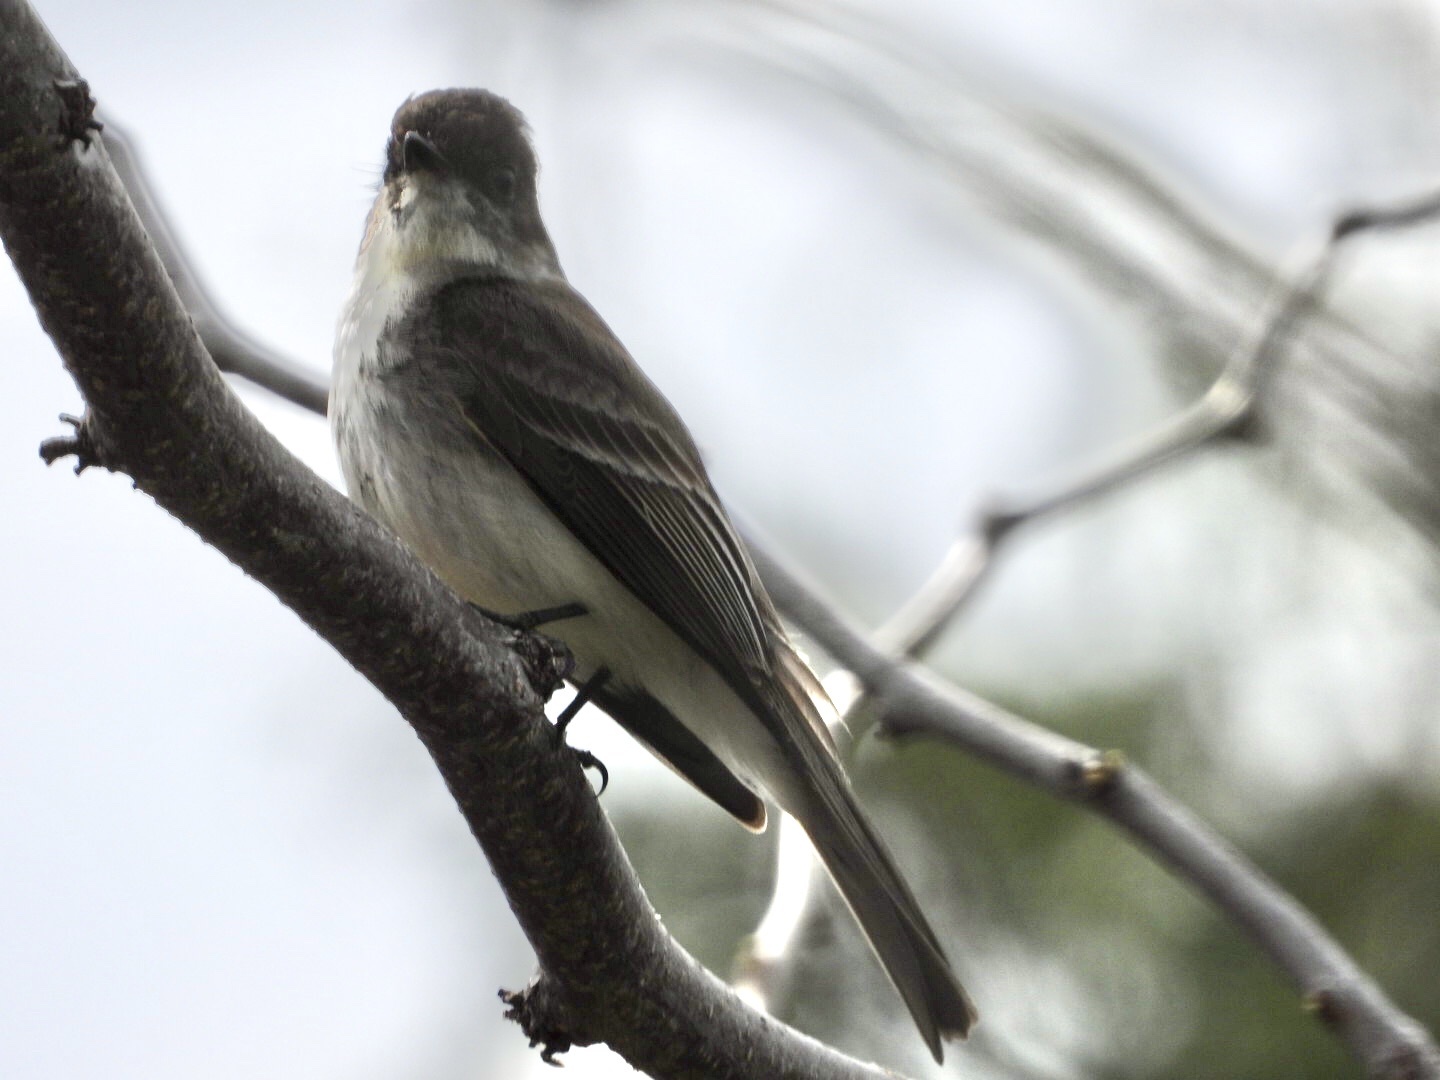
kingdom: Animalia
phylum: Chordata
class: Aves
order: Passeriformes
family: Tyrannidae
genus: Sayornis
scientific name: Sayornis phoebe
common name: Eastern phoebe
